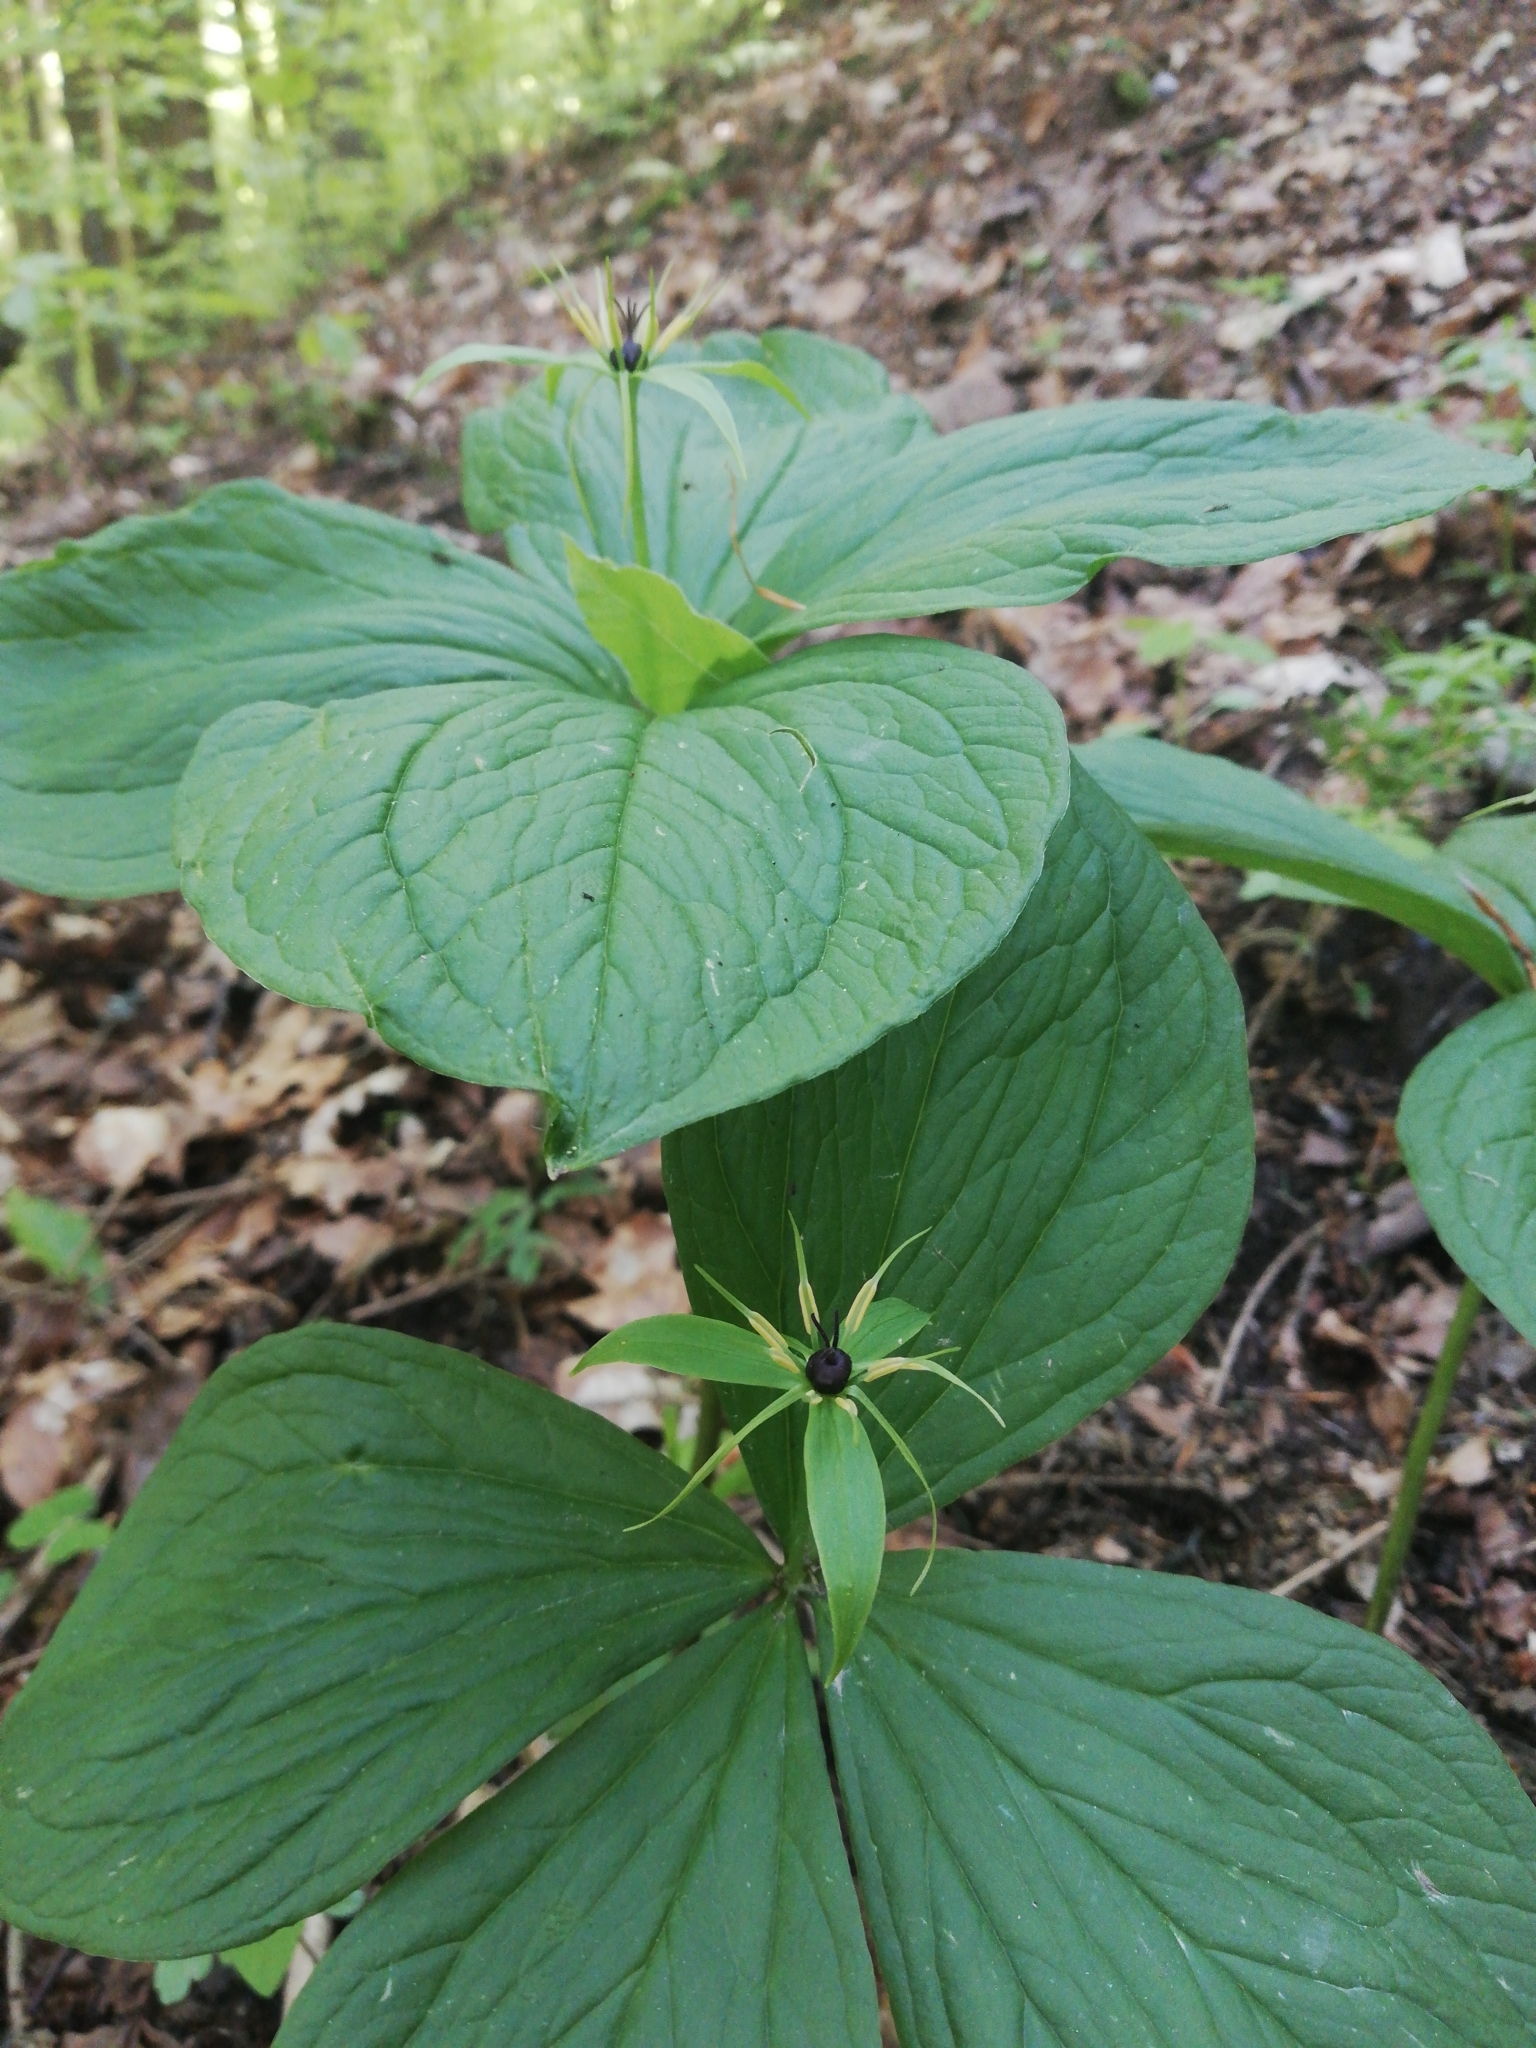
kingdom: Plantae
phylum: Tracheophyta
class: Liliopsida
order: Liliales
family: Melanthiaceae
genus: Paris
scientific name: Paris quadrifolia
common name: Herb-paris
